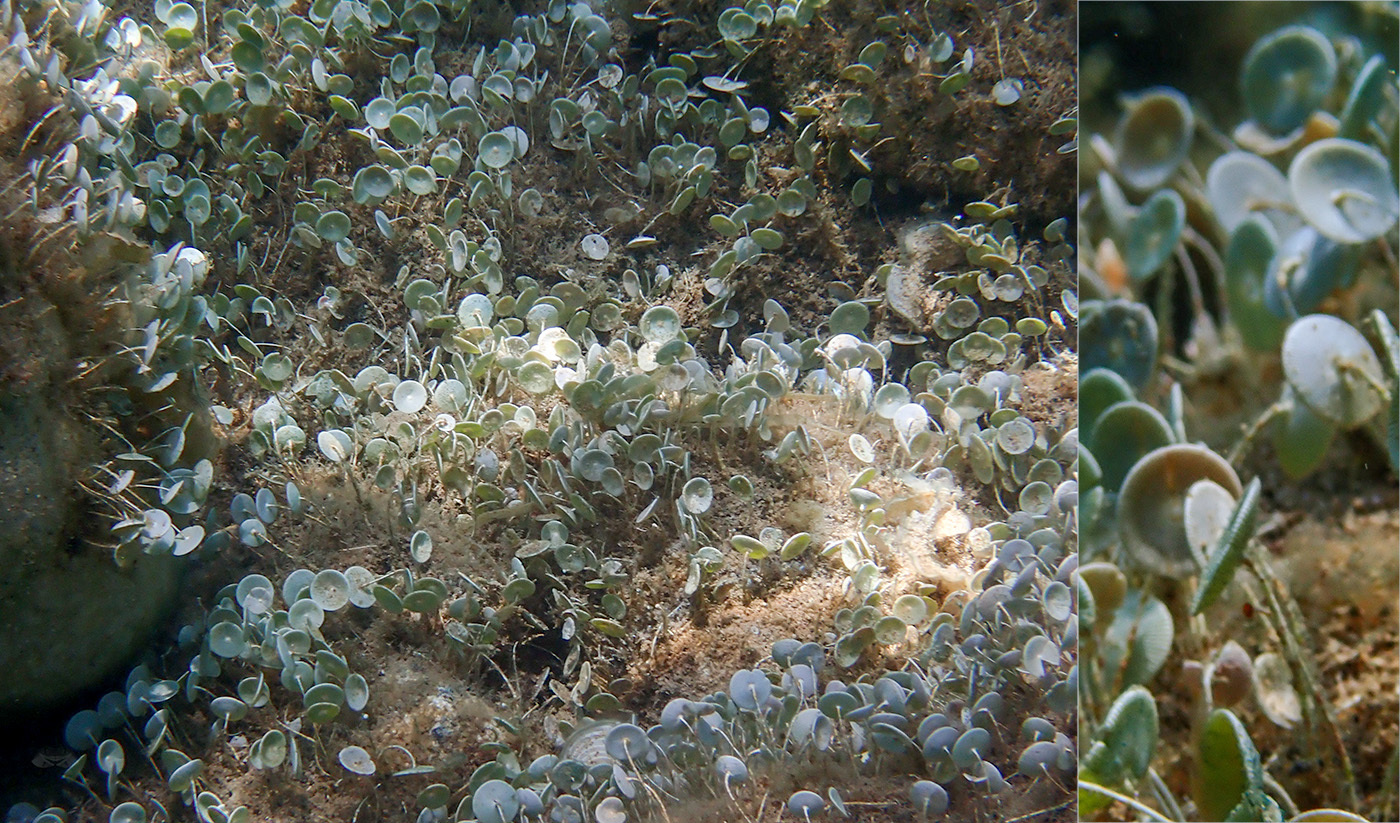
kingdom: Plantae
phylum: Chlorophyta
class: Ulvophyceae
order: Dasycladales
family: Polyphysaceae
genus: Acetabularia
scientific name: Acetabularia acetabulum
